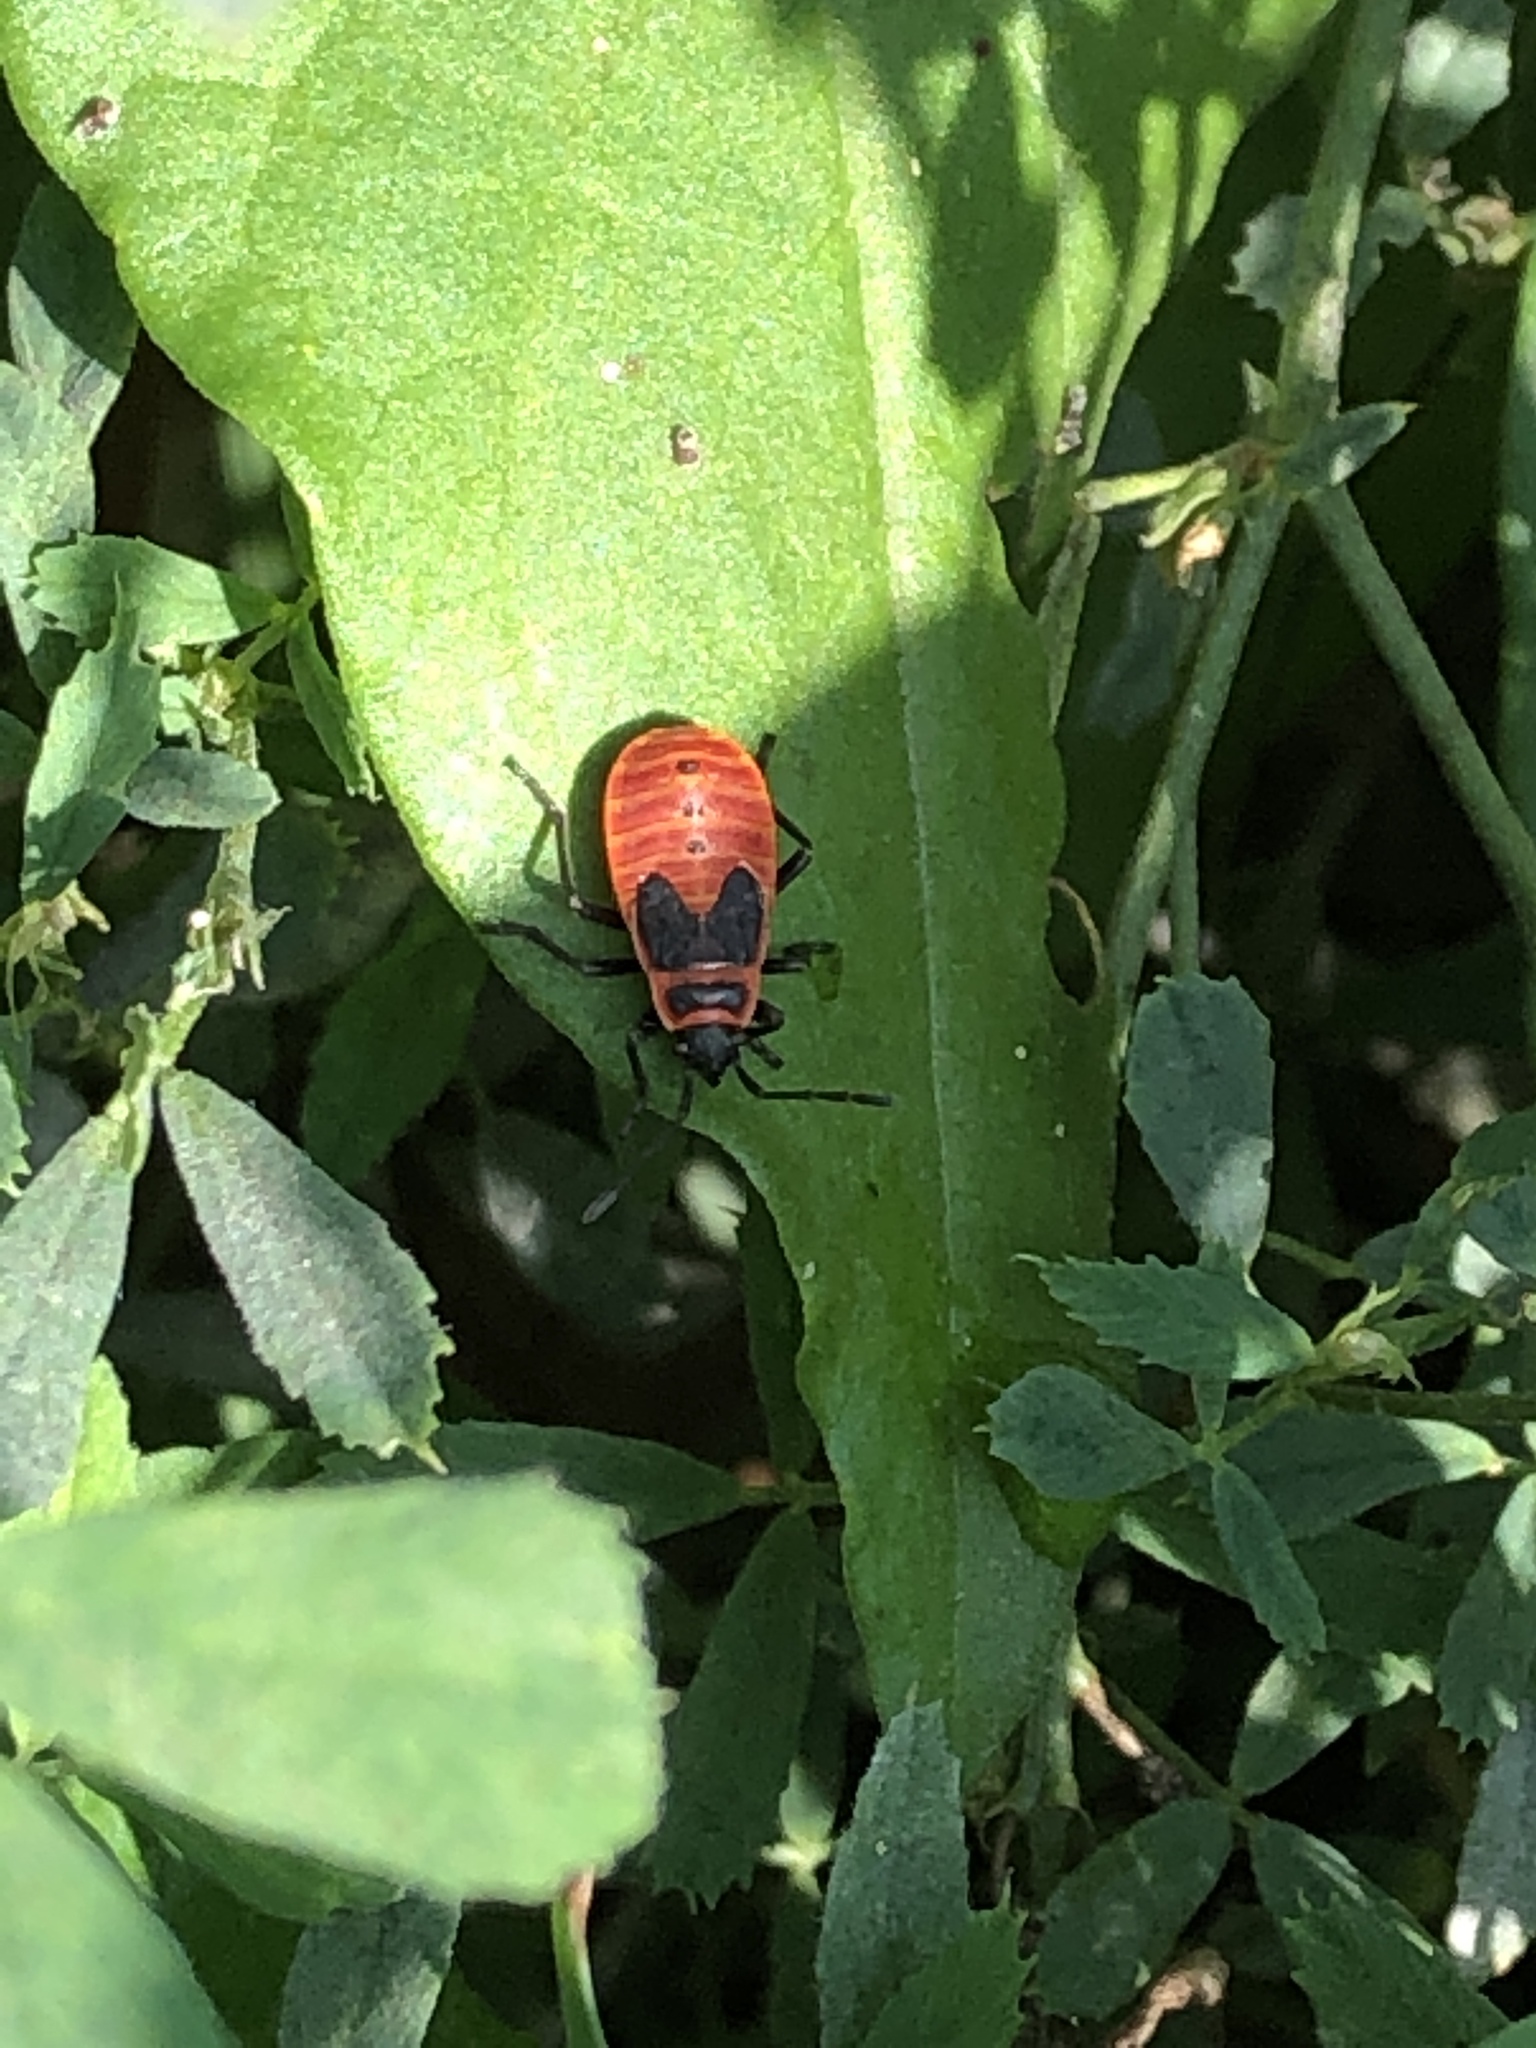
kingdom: Animalia
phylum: Arthropoda
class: Insecta
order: Hemiptera
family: Pyrrhocoridae
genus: Pyrrhocoris
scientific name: Pyrrhocoris apterus
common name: Firebug
